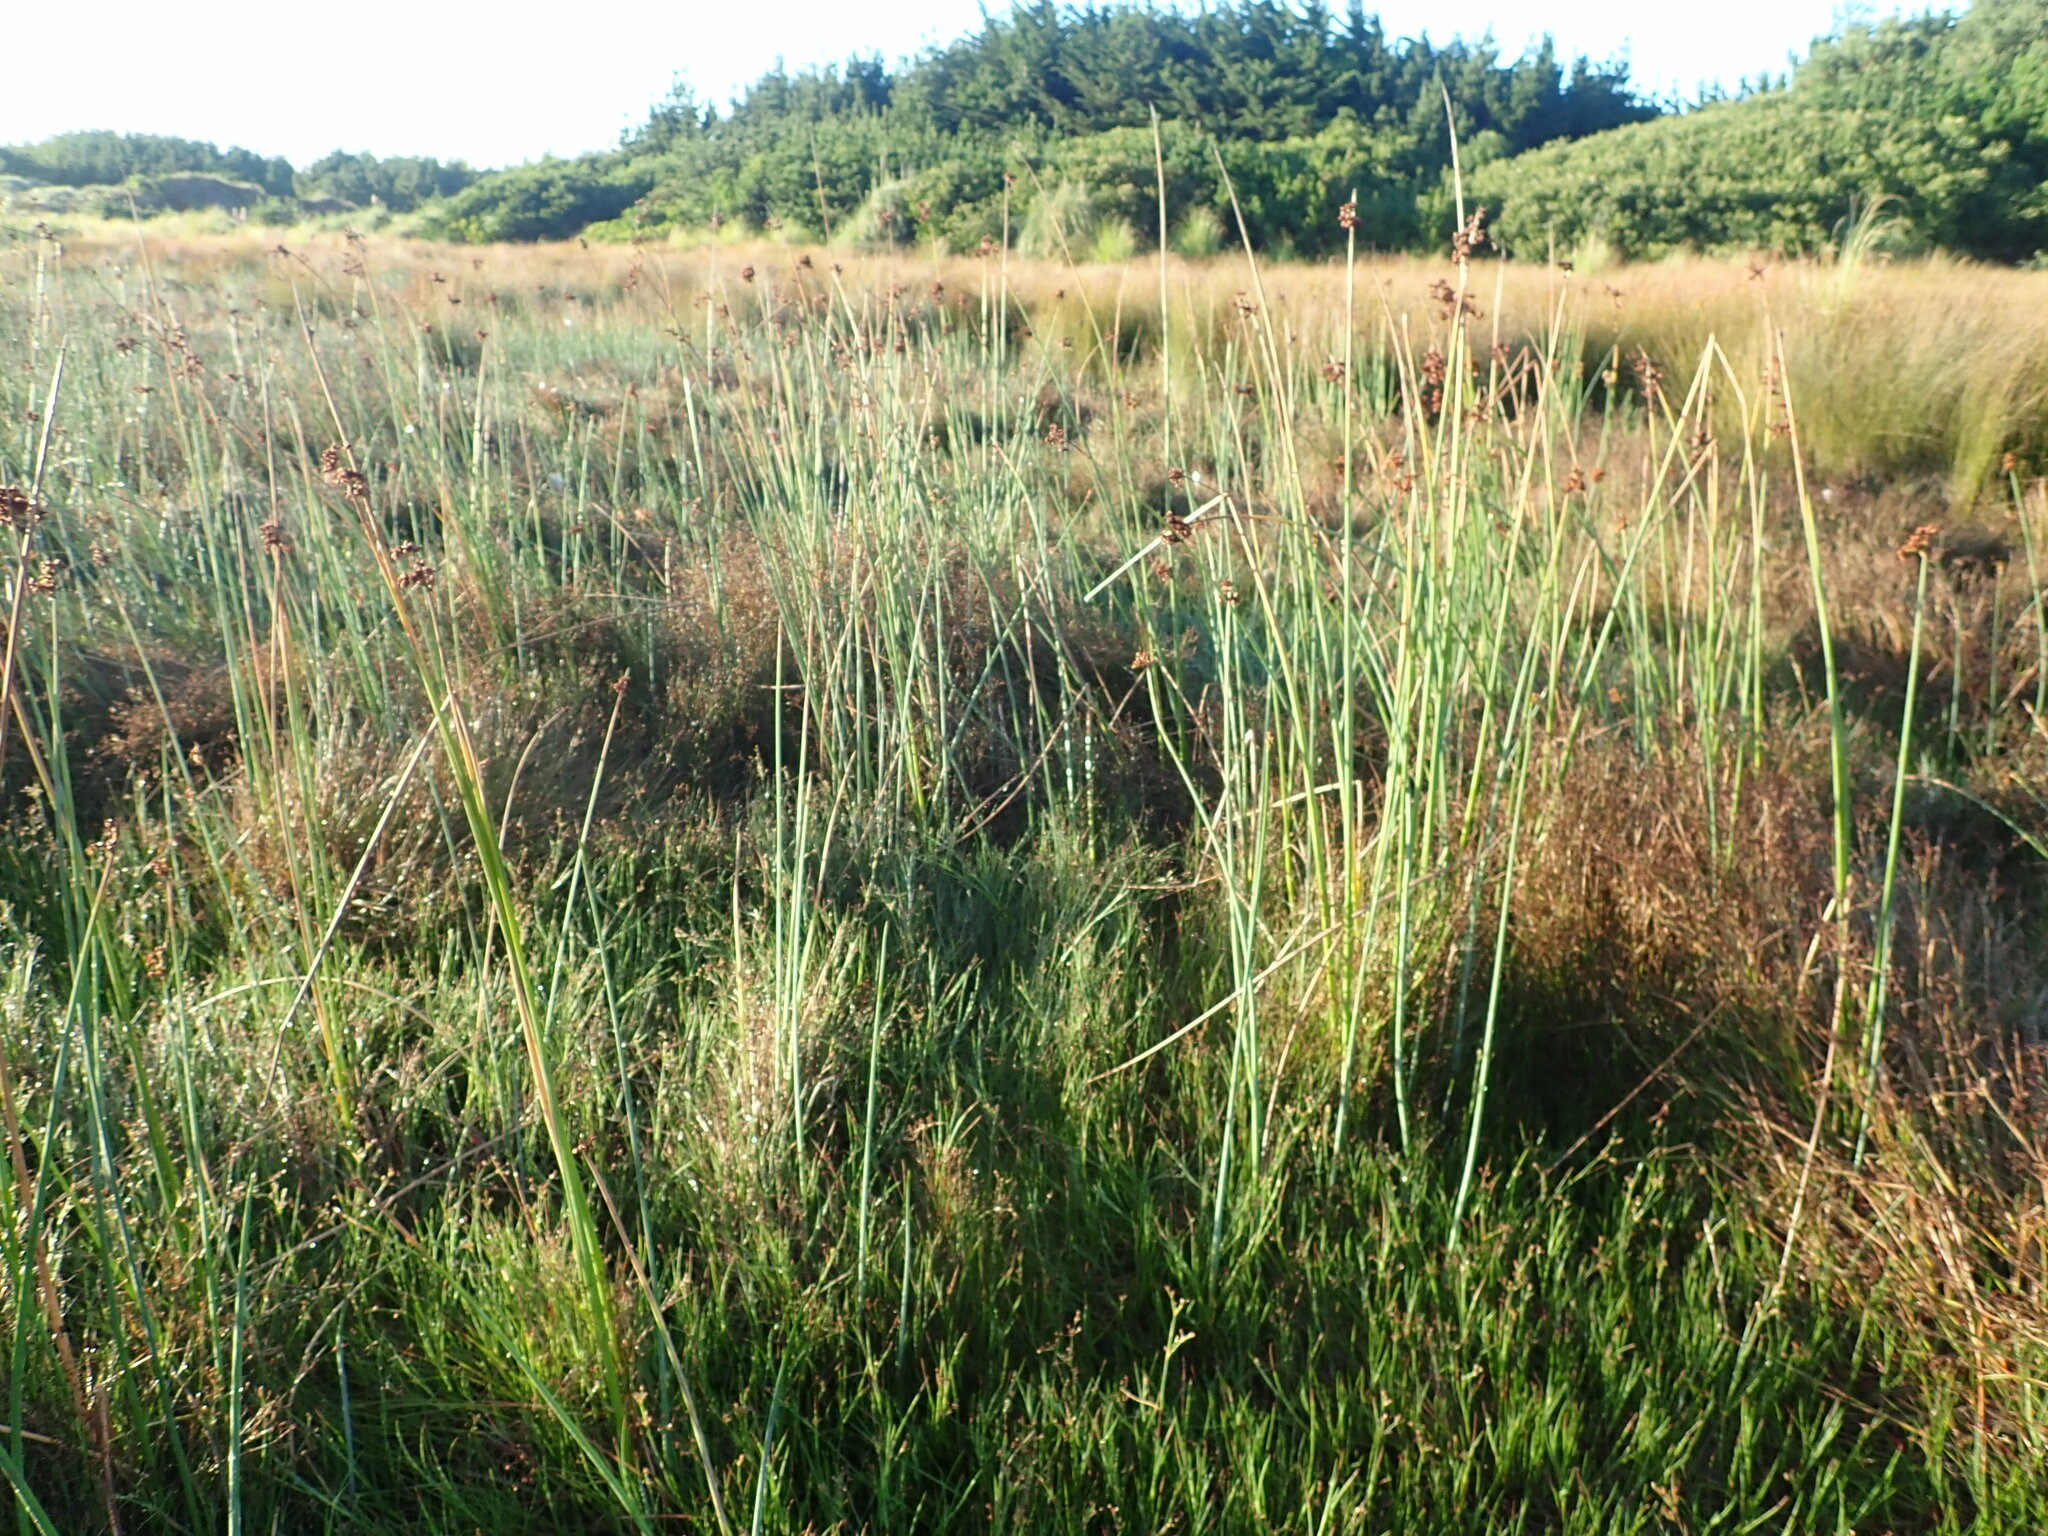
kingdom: Plantae
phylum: Tracheophyta
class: Liliopsida
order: Poales
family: Juncaceae
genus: Juncus
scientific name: Juncus articulatus
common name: Jointed rush
